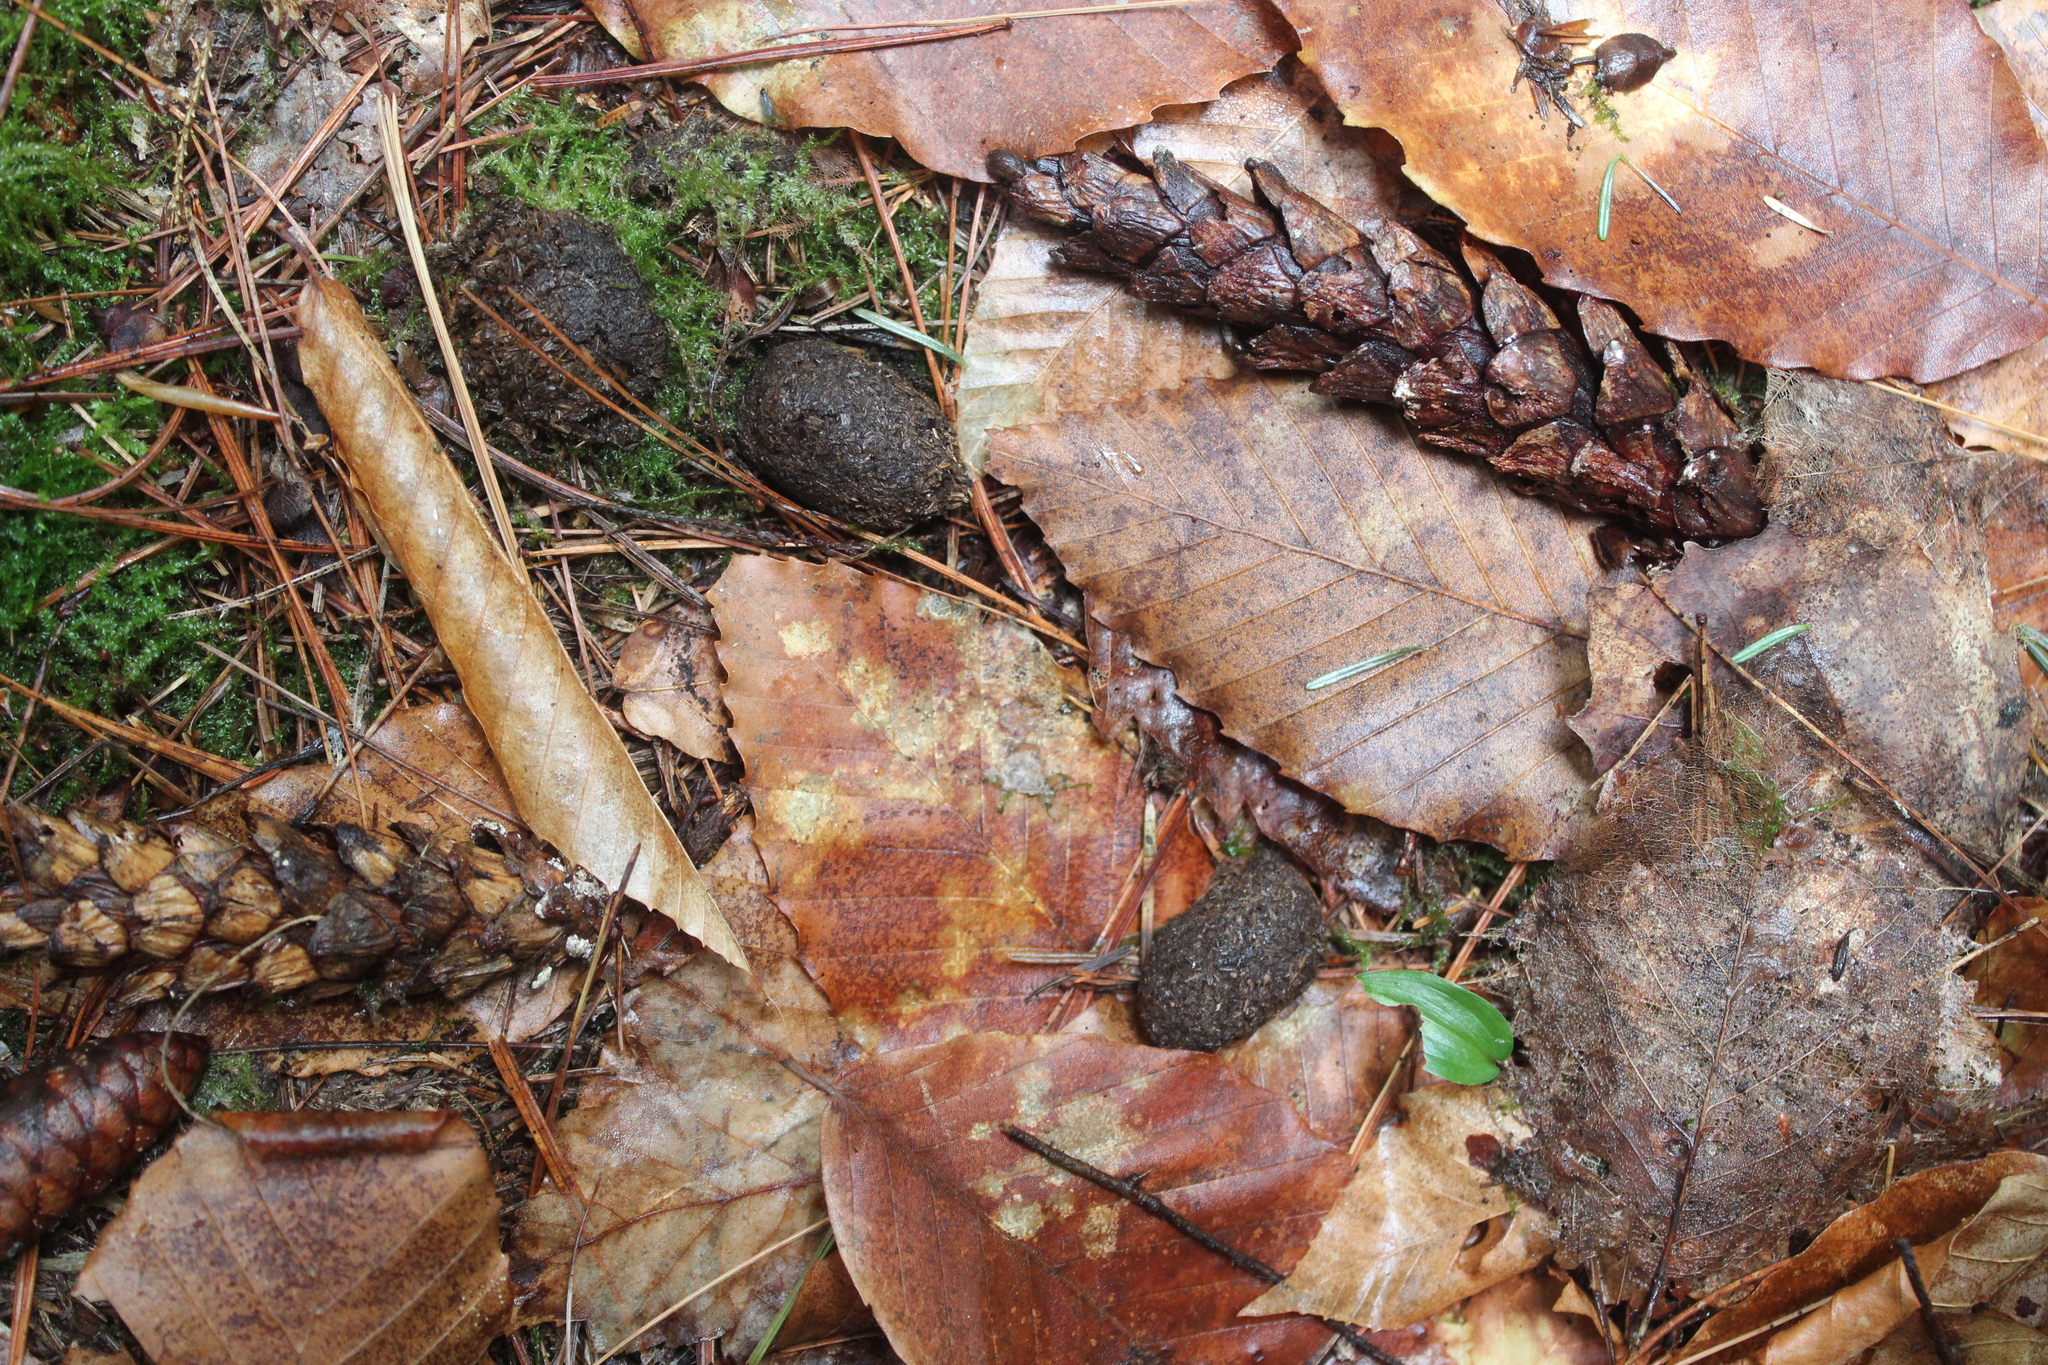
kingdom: Animalia
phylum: Chordata
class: Mammalia
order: Artiodactyla
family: Cervidae
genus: Alces
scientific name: Alces alces
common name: Moose
